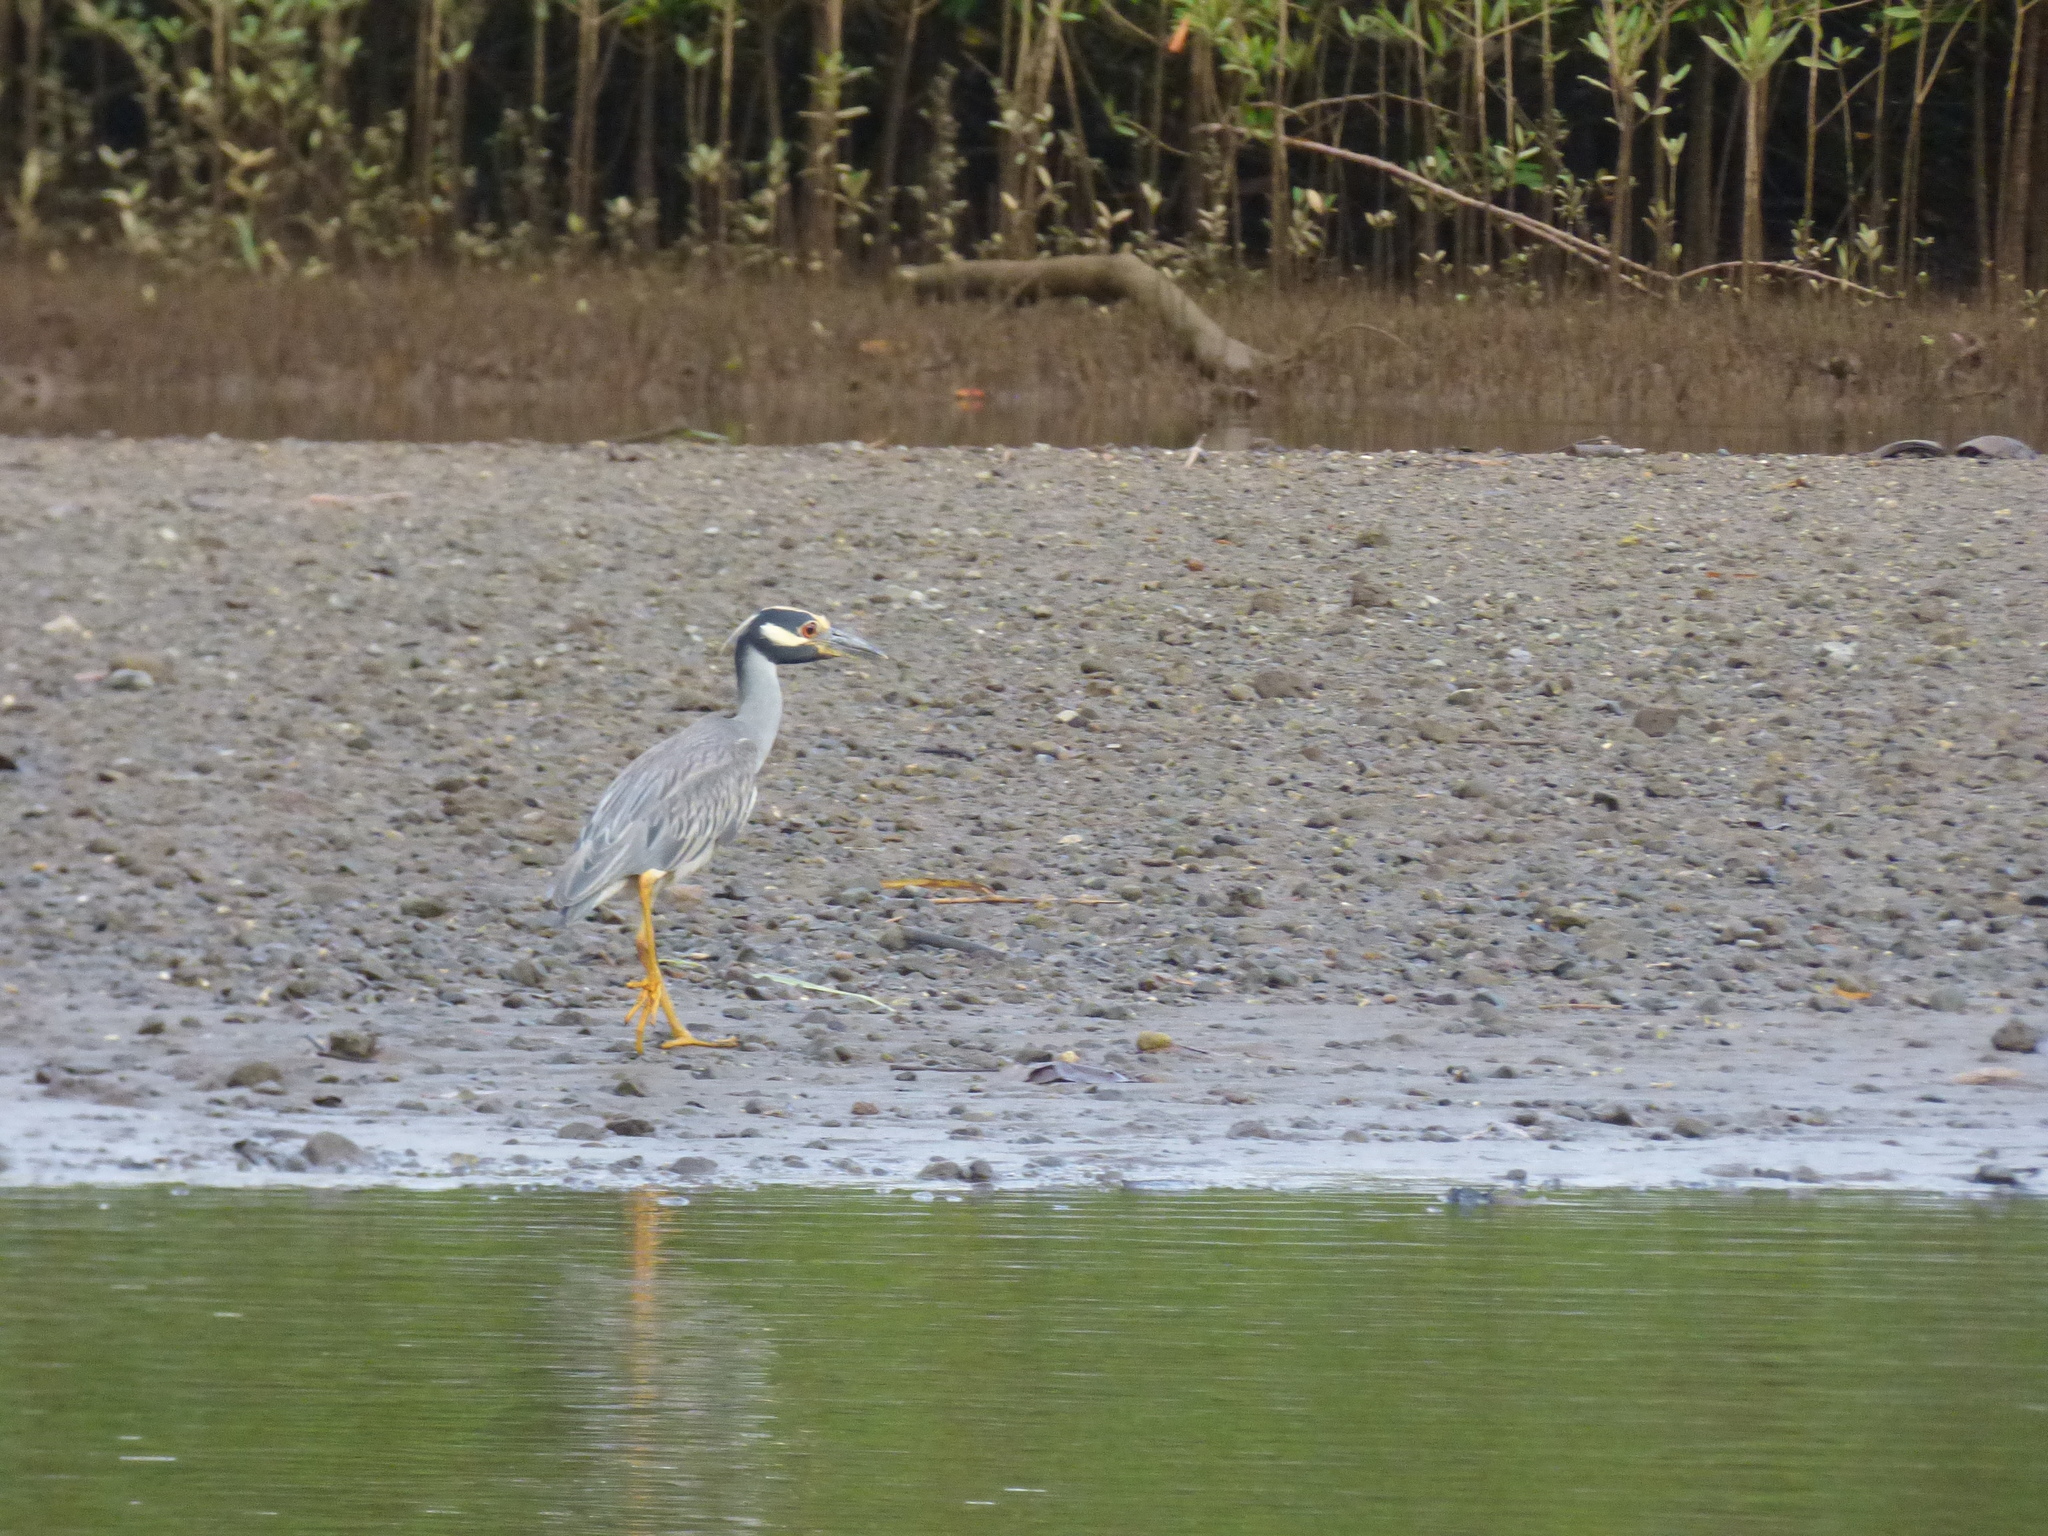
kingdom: Animalia
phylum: Chordata
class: Aves
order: Pelecaniformes
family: Ardeidae
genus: Nyctanassa
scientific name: Nyctanassa violacea
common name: Yellow-crowned night heron
